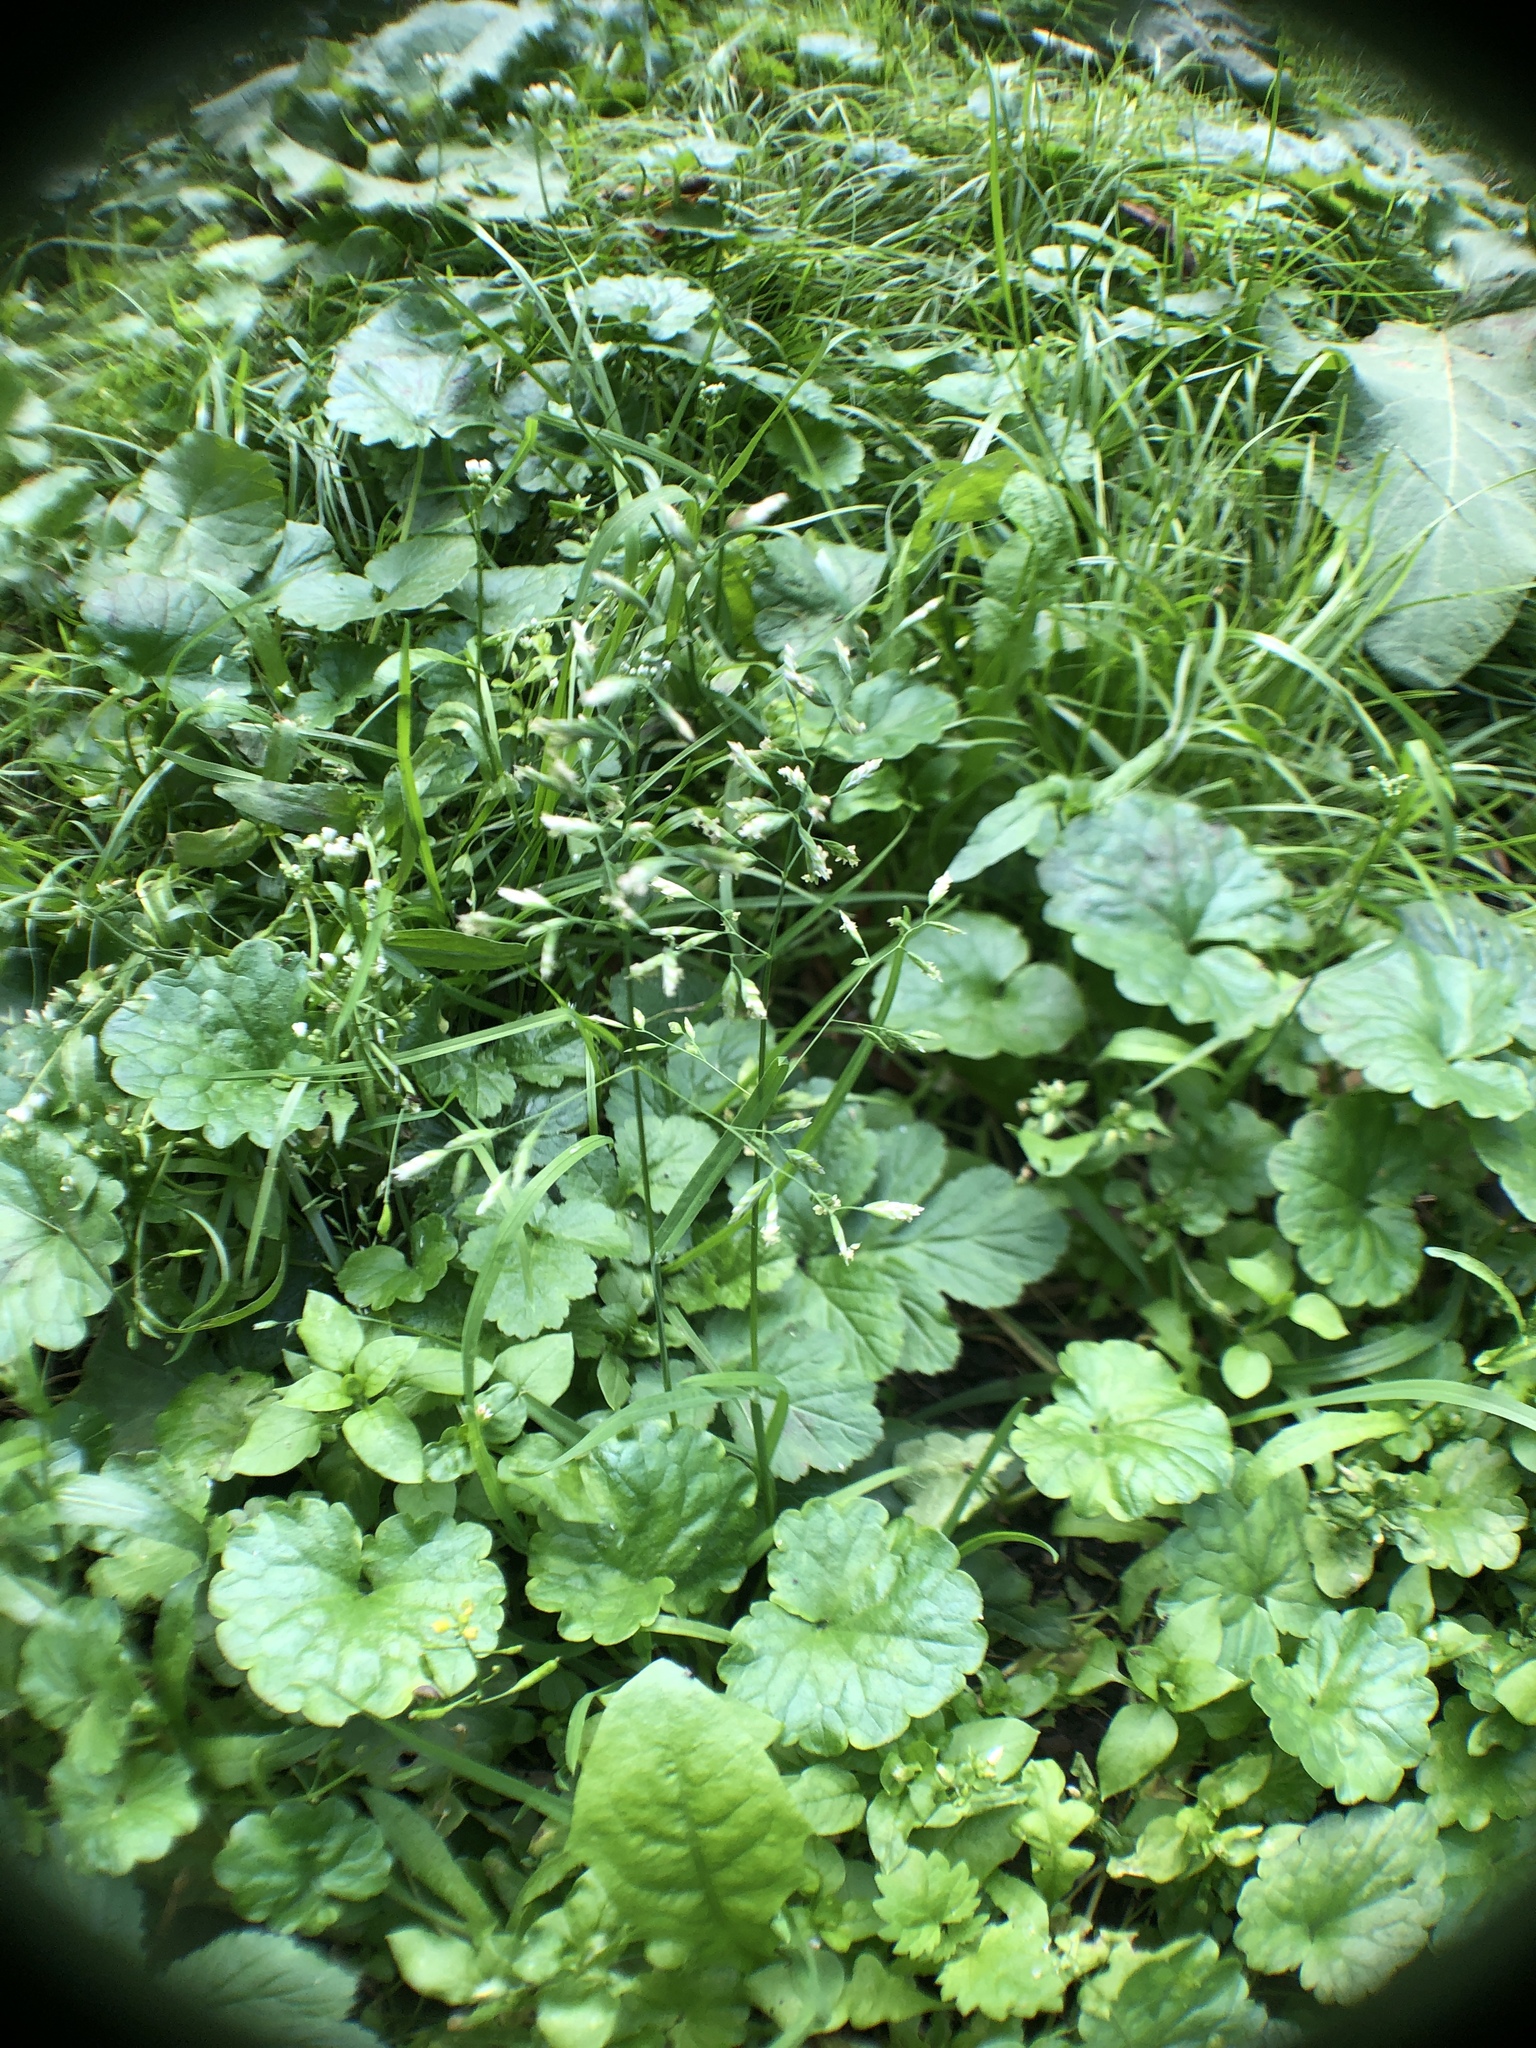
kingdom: Plantae
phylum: Tracheophyta
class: Liliopsida
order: Poales
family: Poaceae
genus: Poa
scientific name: Poa annua
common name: Annual bluegrass
